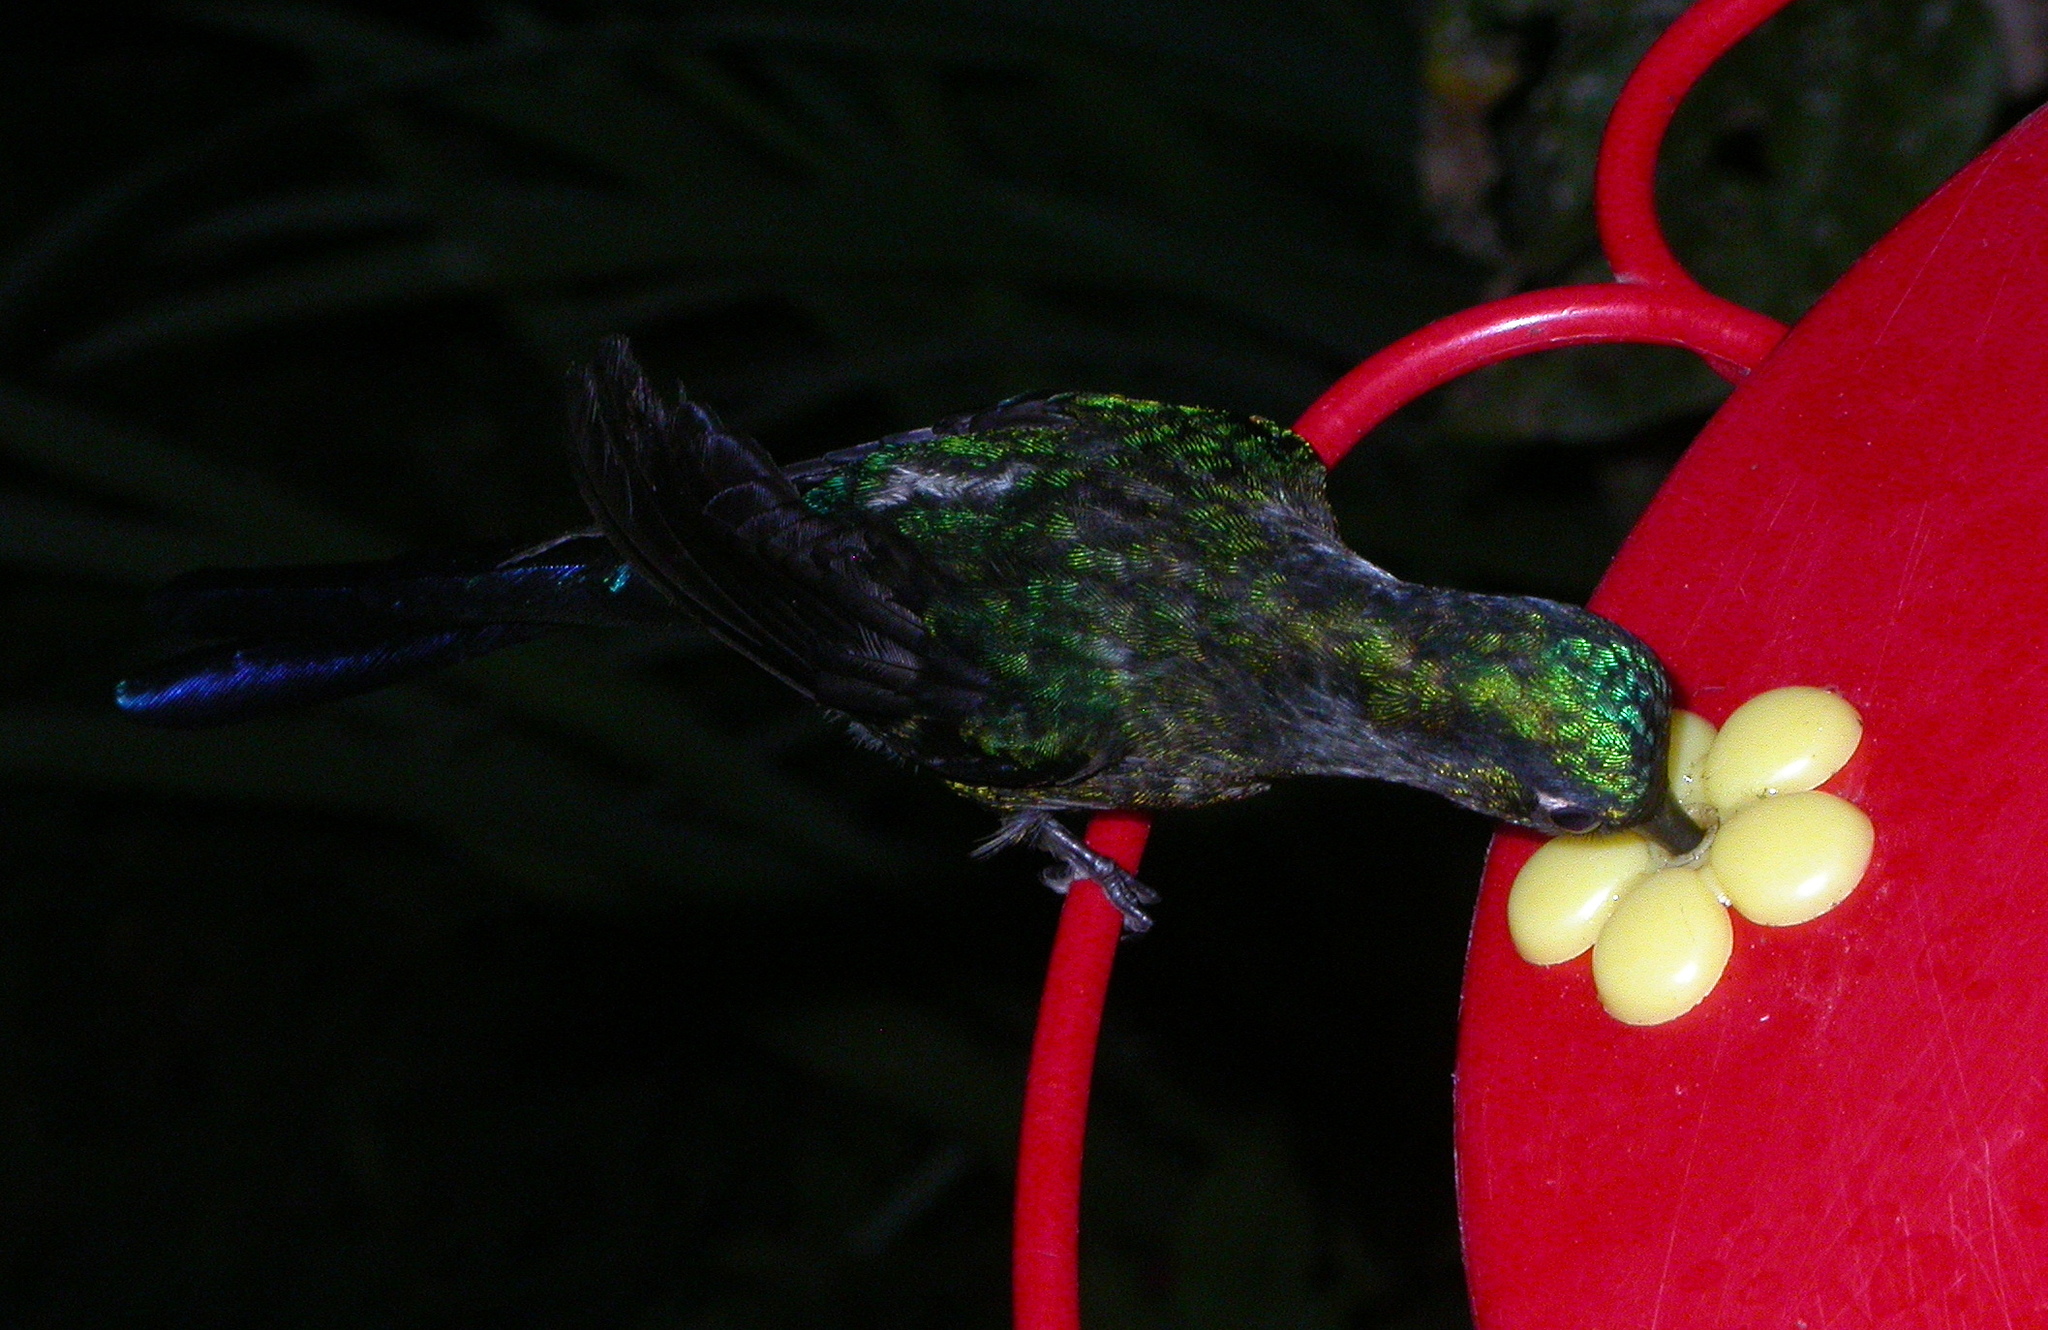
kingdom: Animalia
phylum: Chordata
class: Aves
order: Apodiformes
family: Trochilidae
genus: Aglaiocercus
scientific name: Aglaiocercus coelestis
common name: Violet-tailed sylph
